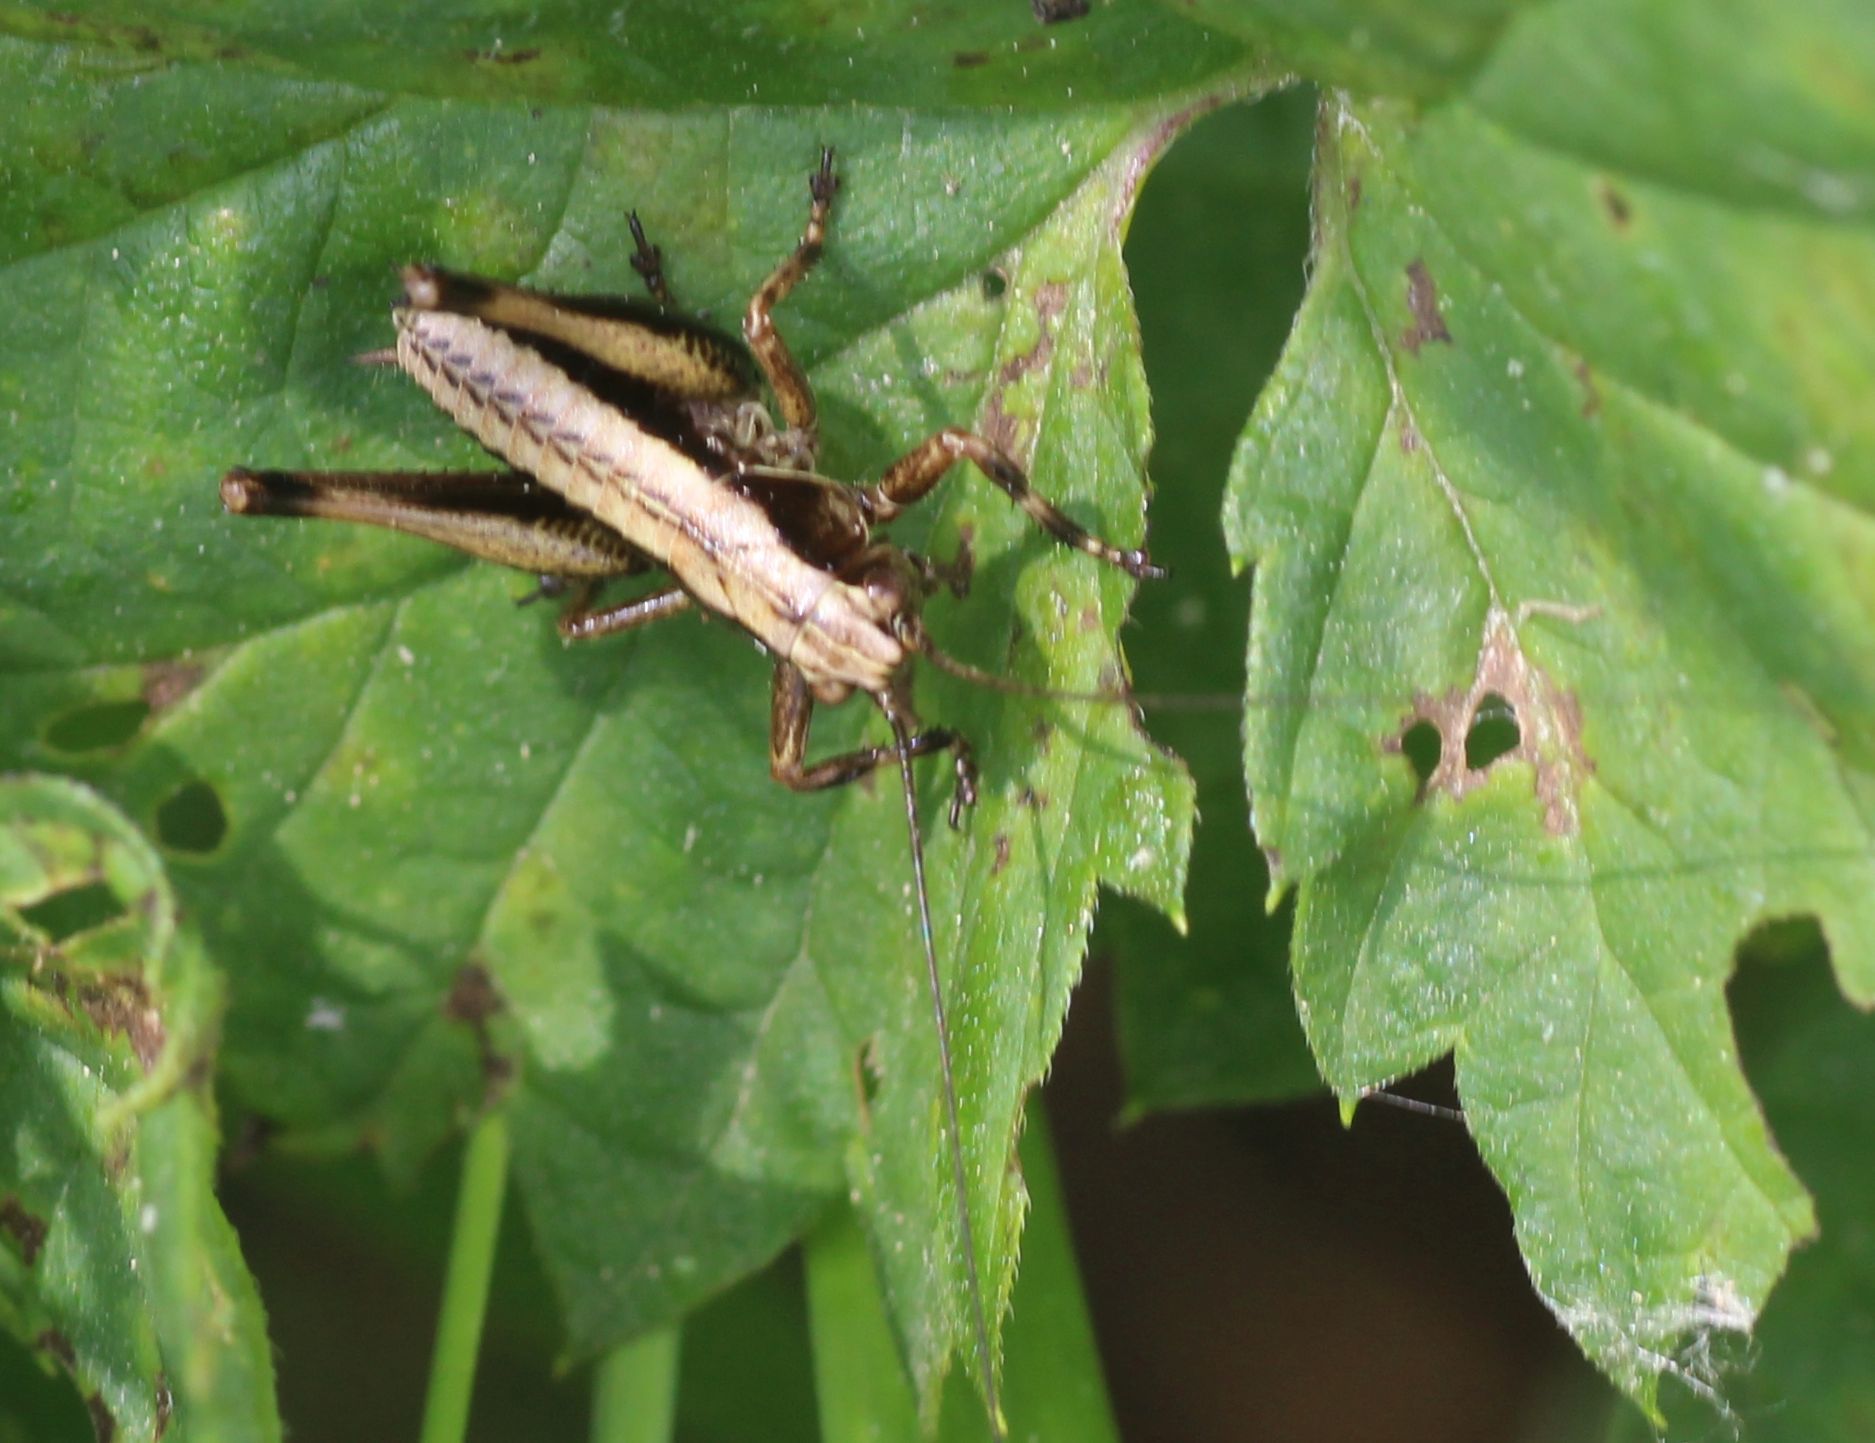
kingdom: Animalia
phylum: Arthropoda
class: Insecta
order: Orthoptera
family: Tettigoniidae
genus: Pholidoptera
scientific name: Pholidoptera griseoaptera
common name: Dark bush-cricket
